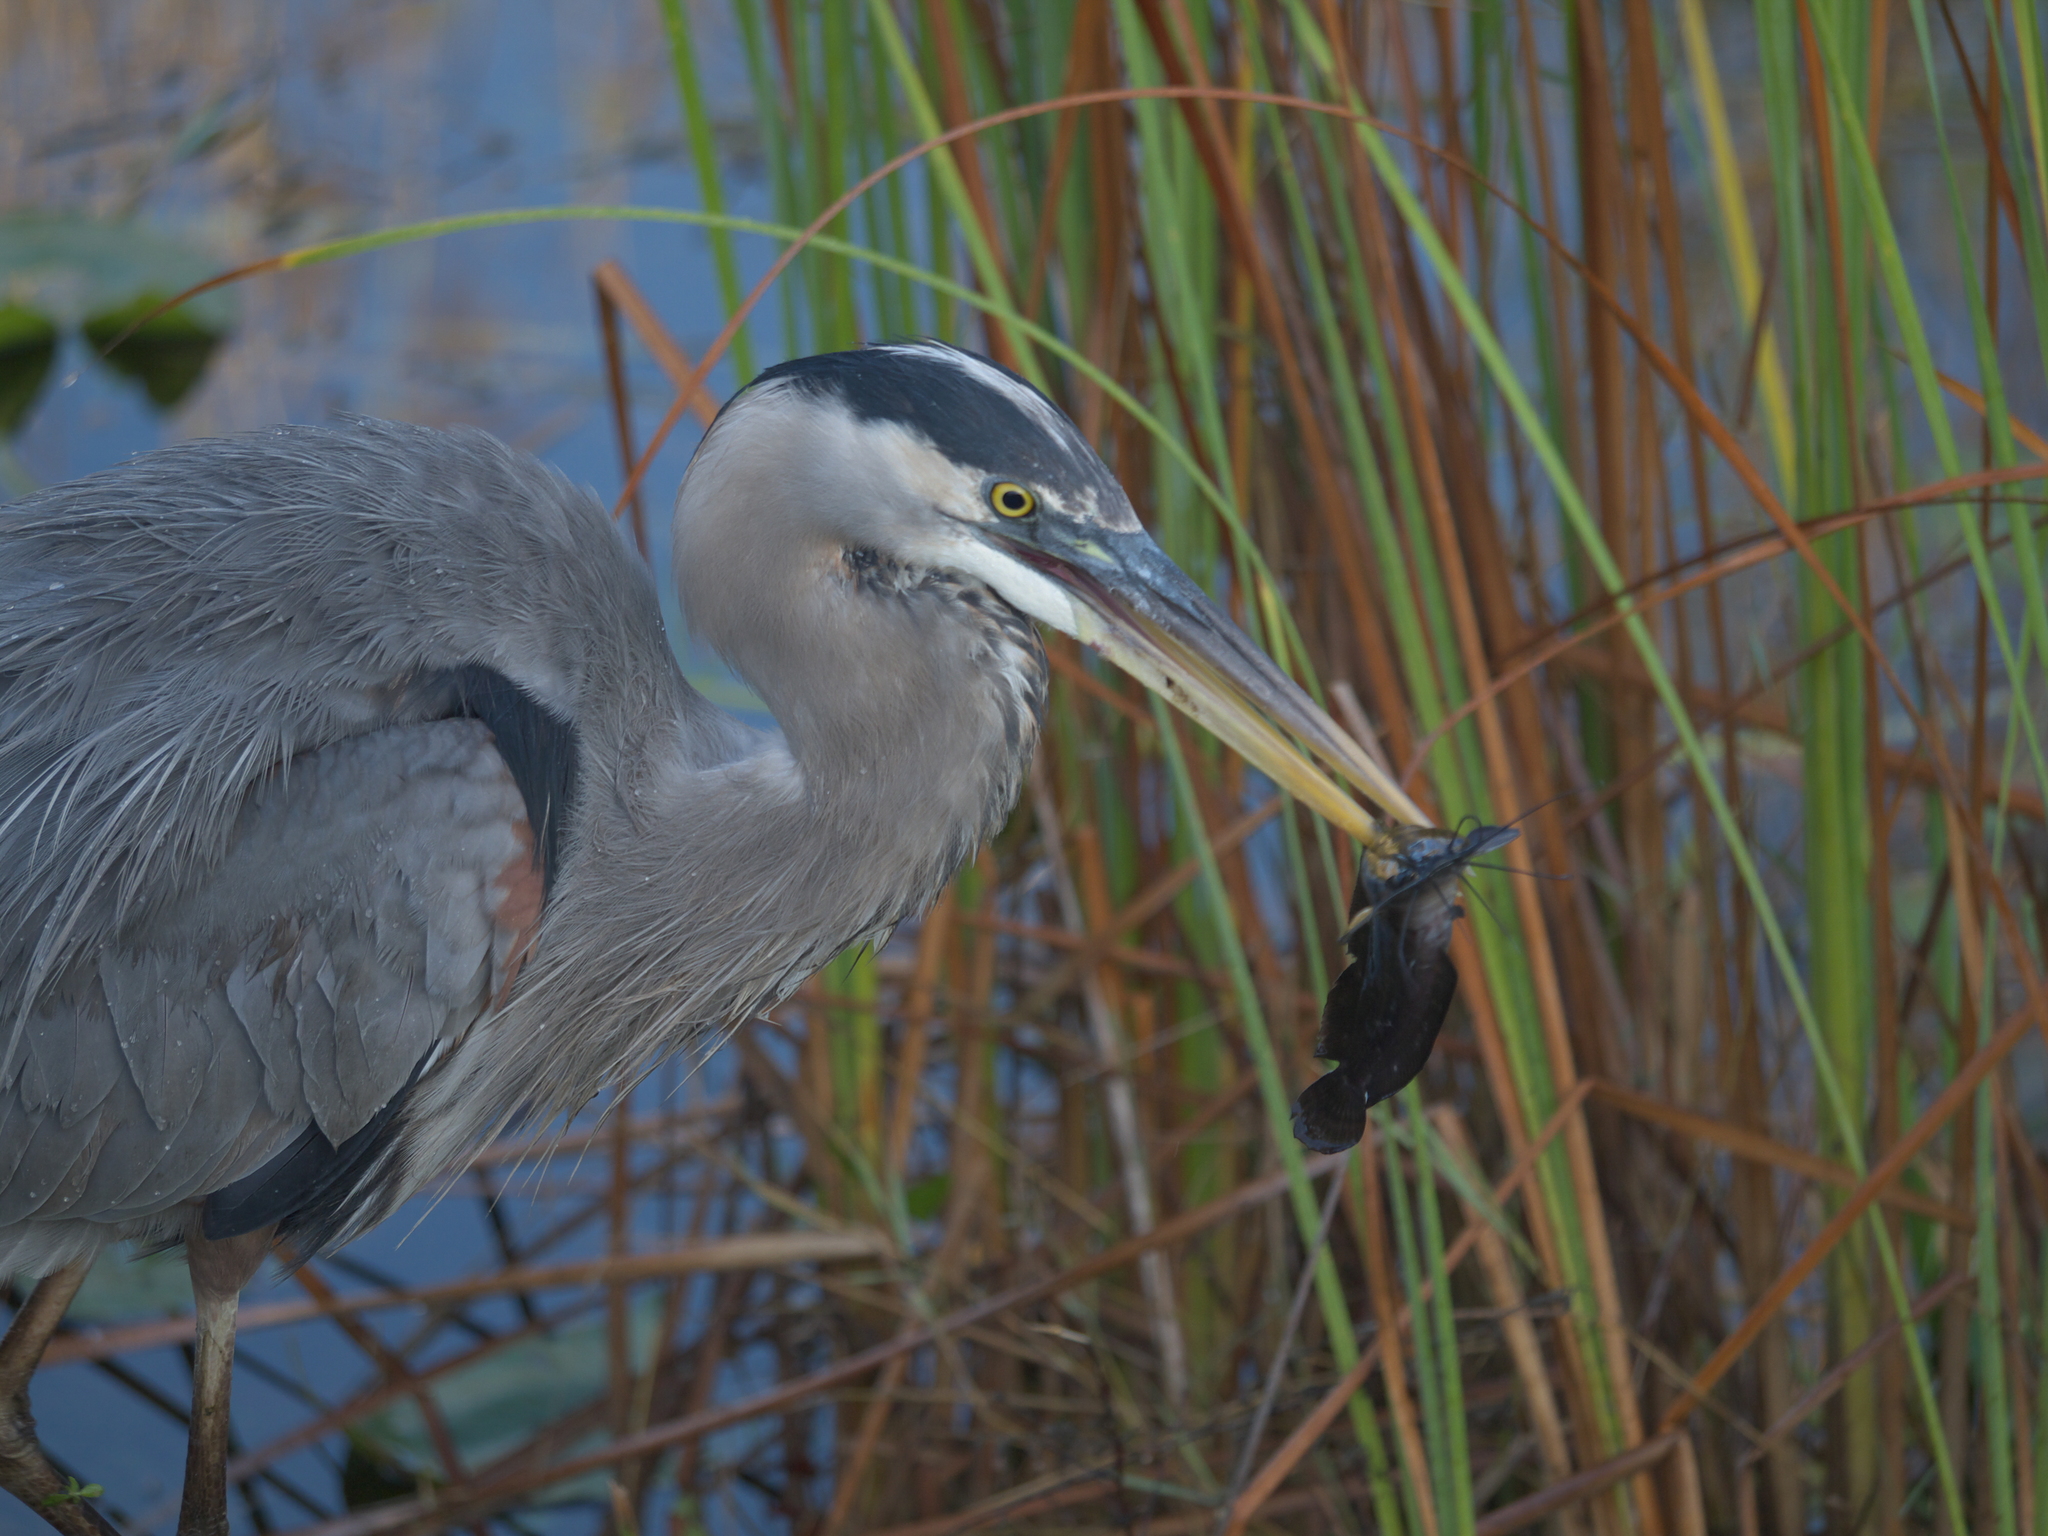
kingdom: Animalia
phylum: Chordata
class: Aves
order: Pelecaniformes
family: Ardeidae
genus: Ardea
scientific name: Ardea herodias
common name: Great blue heron
